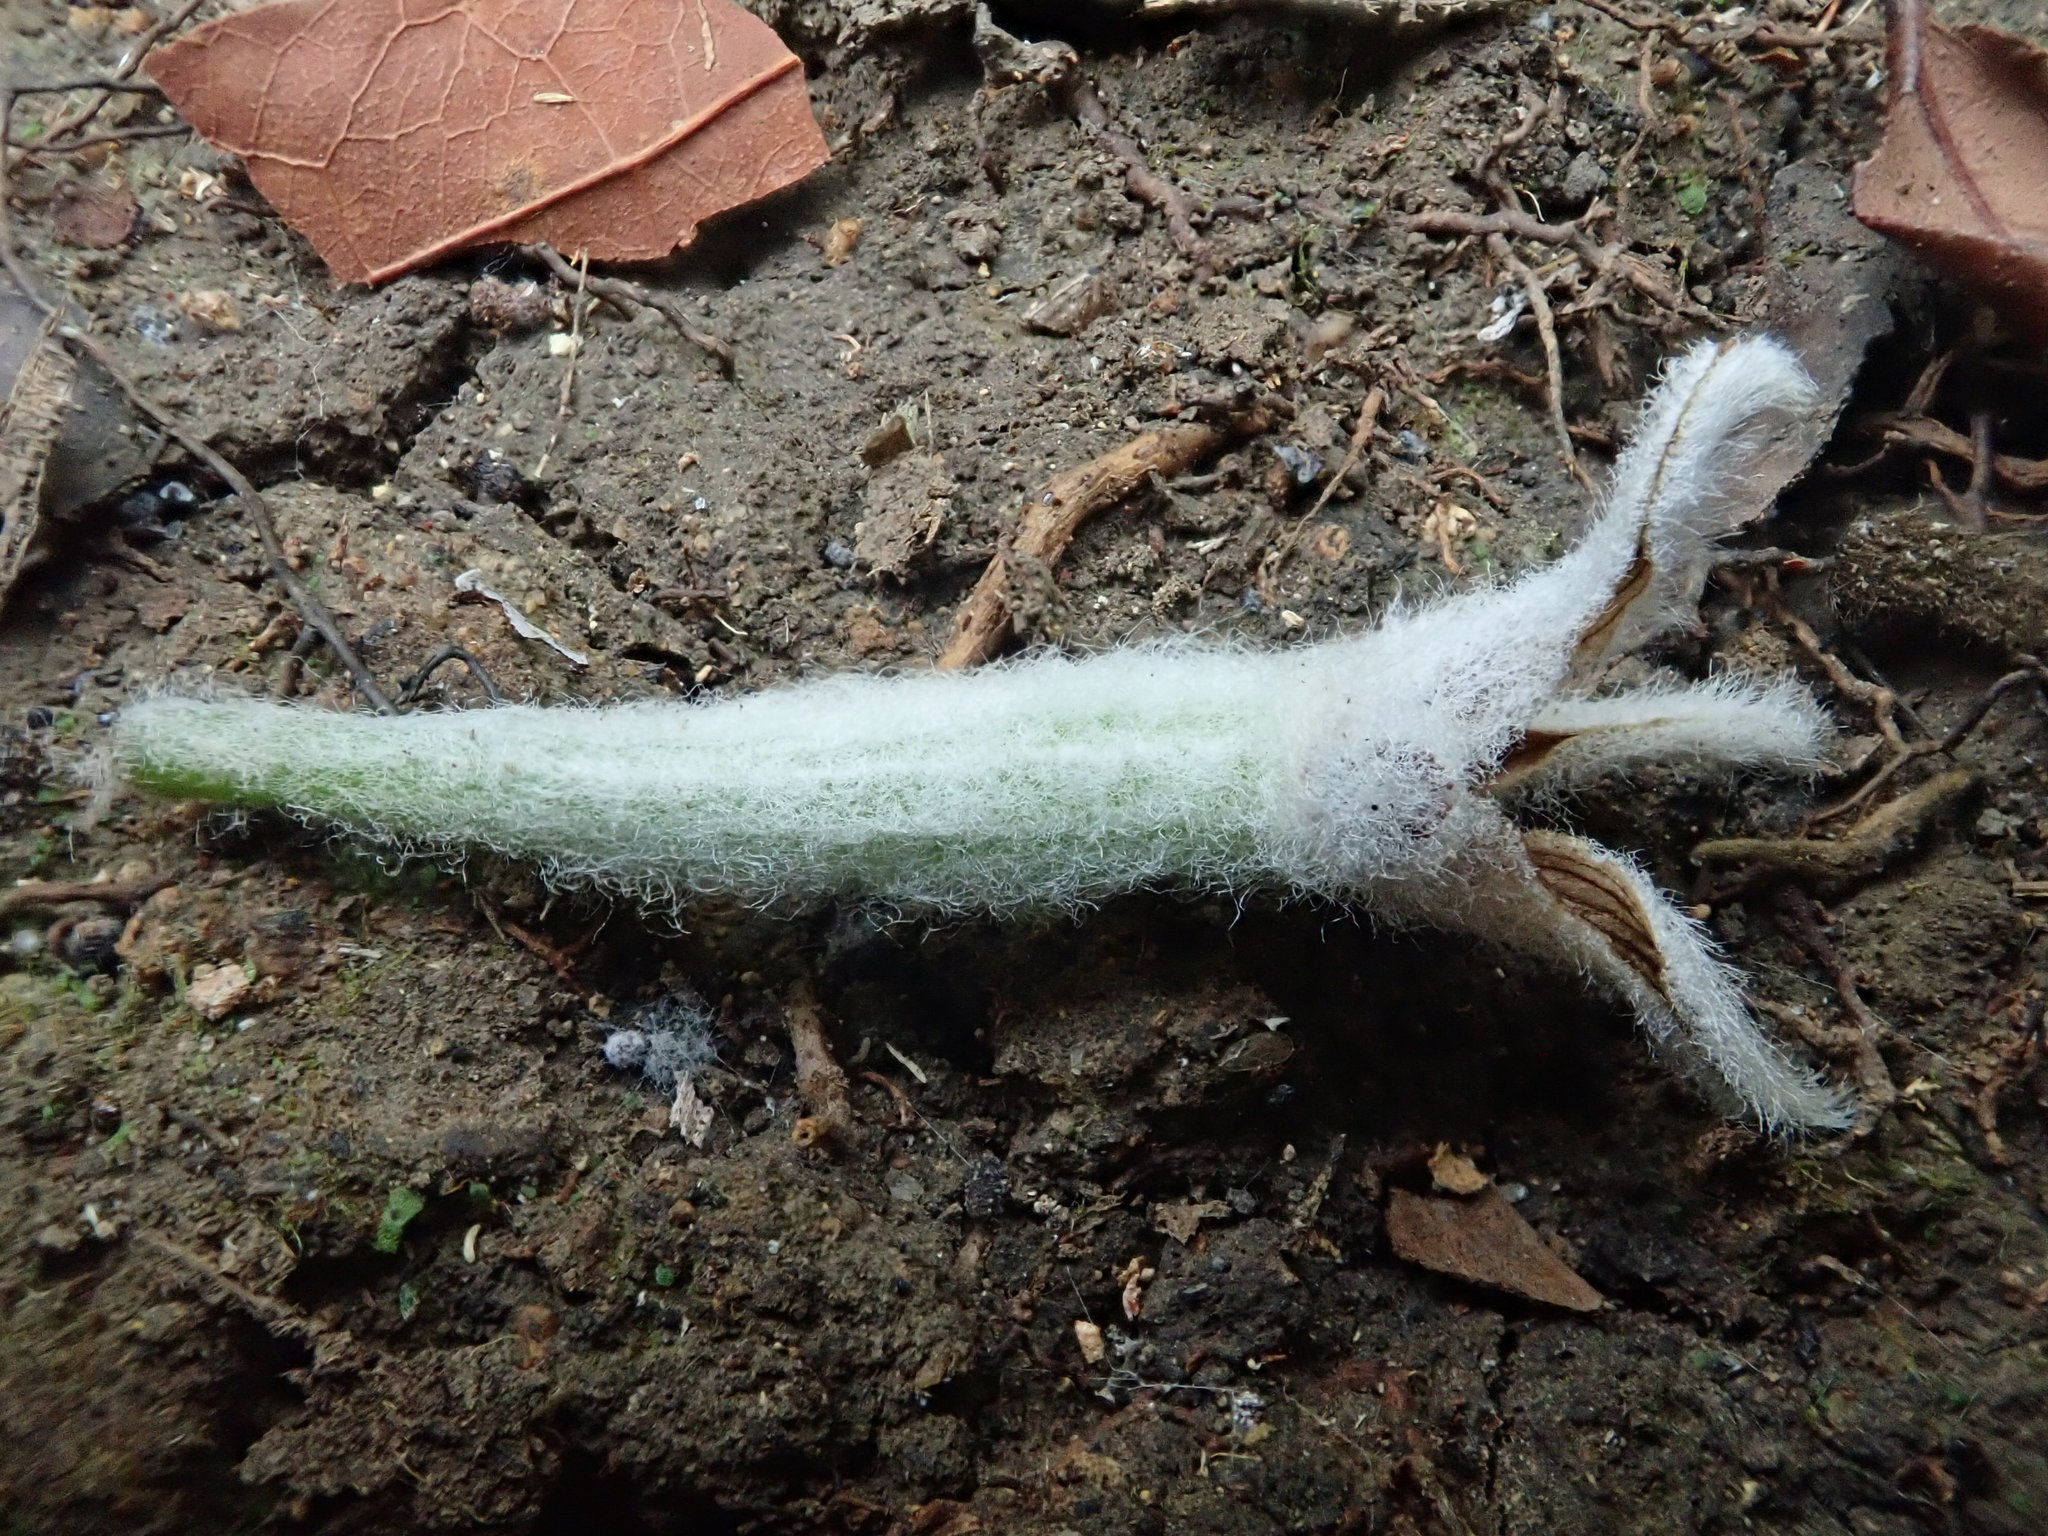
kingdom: Plantae
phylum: Tracheophyta
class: Liliopsida
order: Asparagales
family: Orchidaceae
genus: Dendrolirium
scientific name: Dendrolirium lasiopetalum
